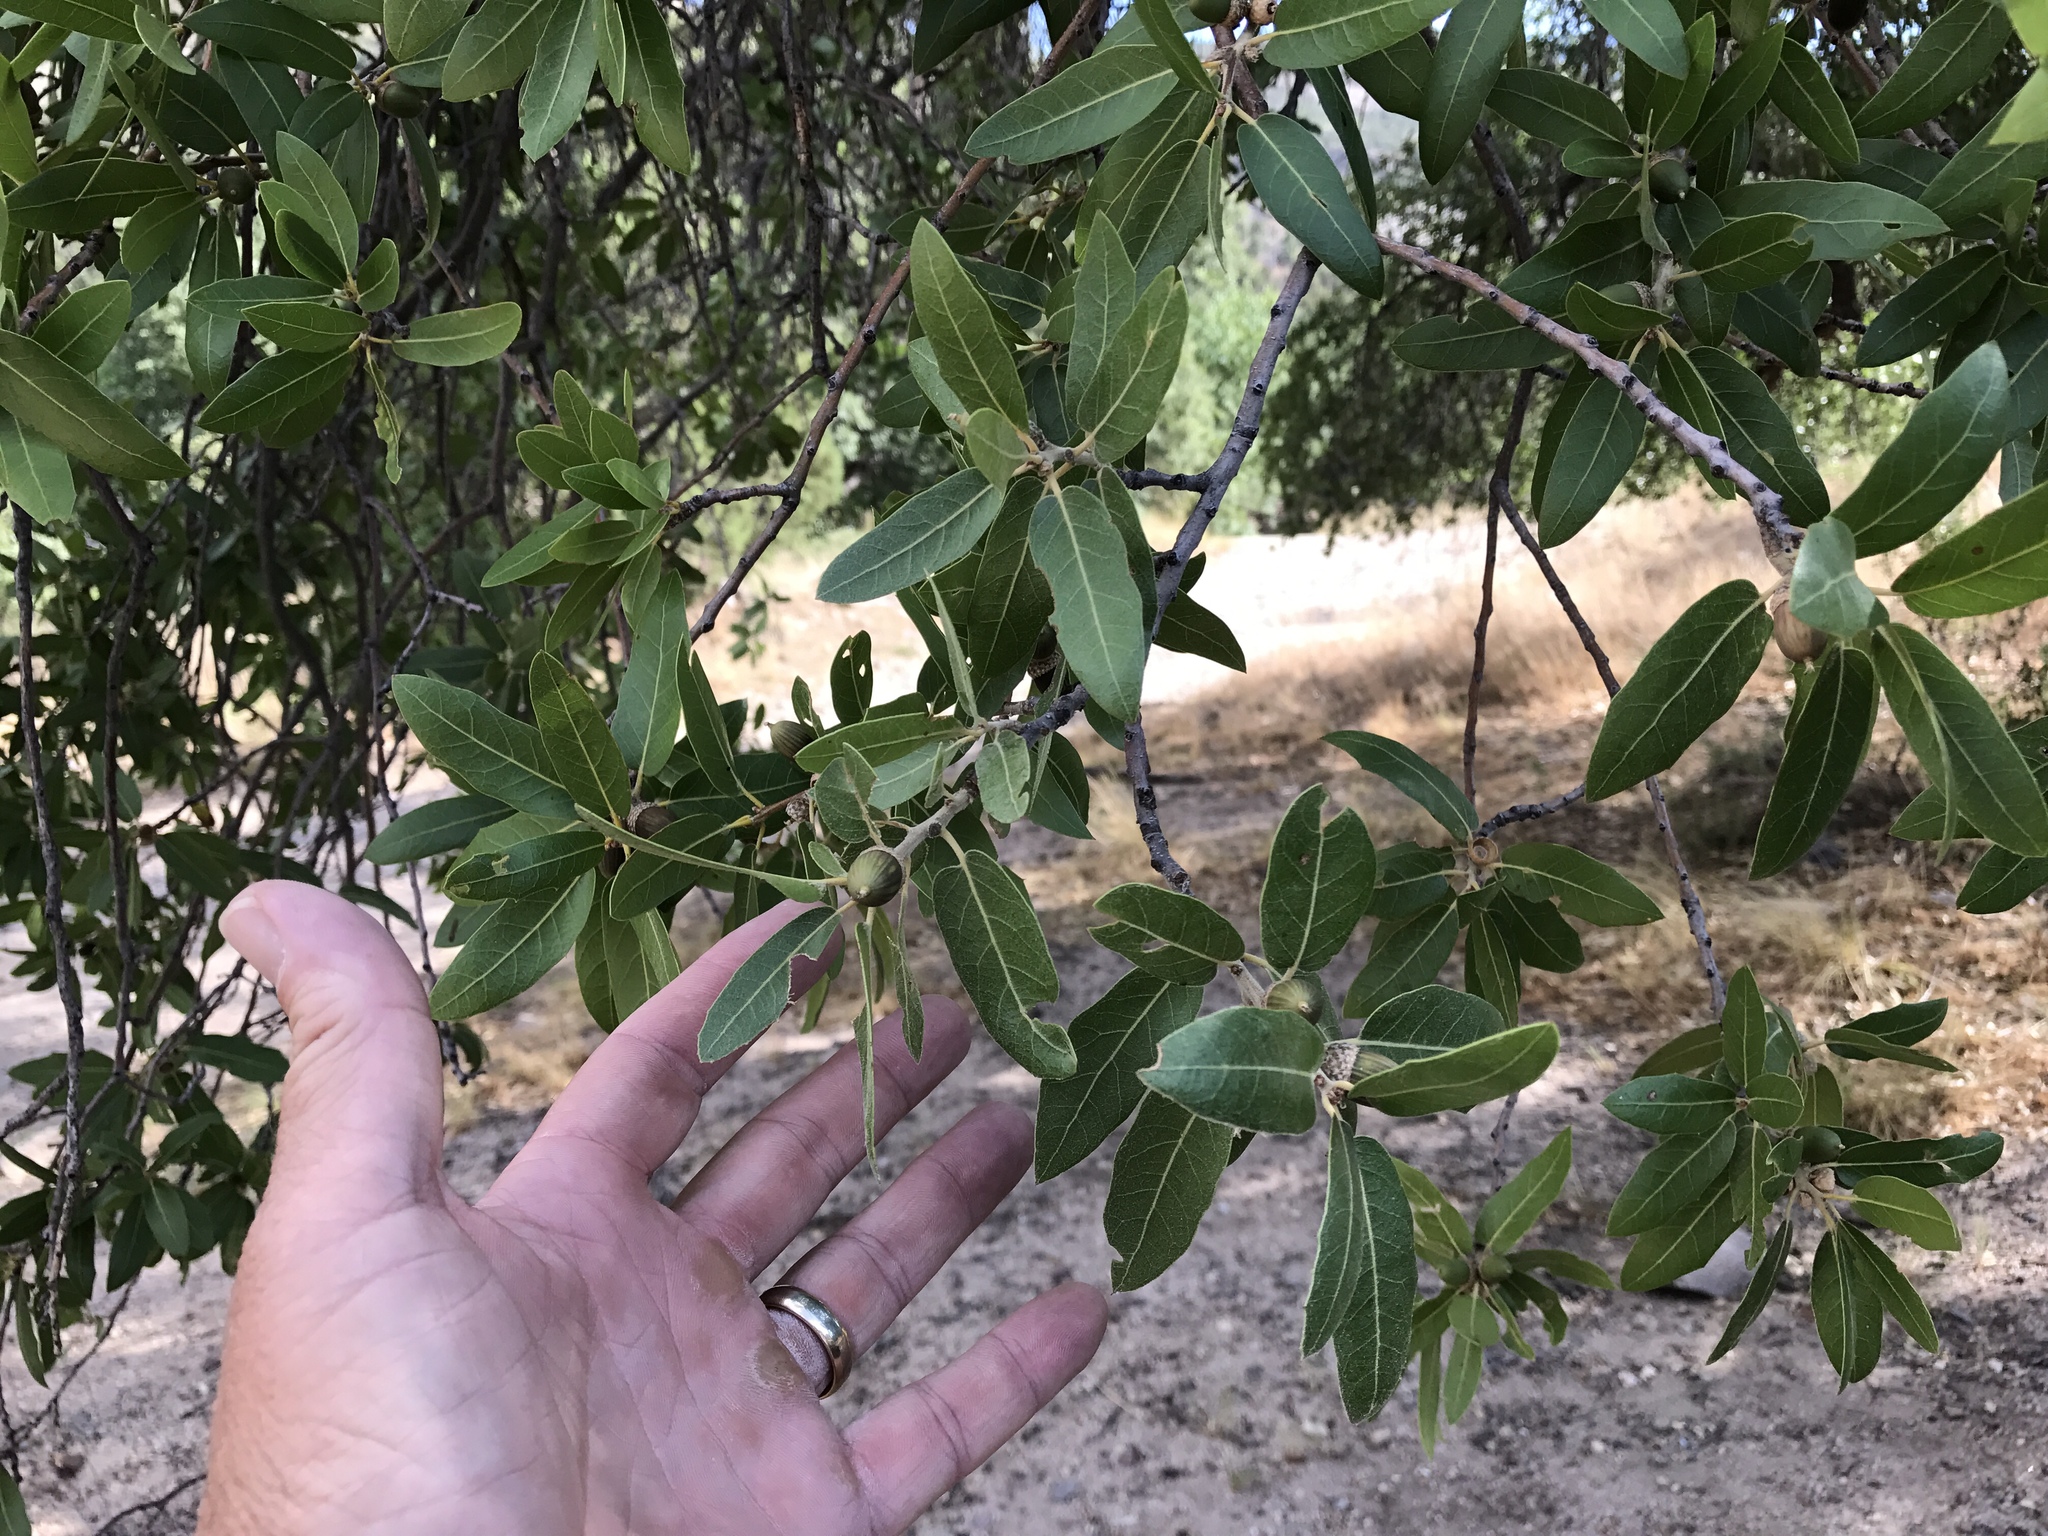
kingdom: Plantae
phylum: Tracheophyta
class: Magnoliopsida
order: Fagales
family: Fagaceae
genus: Quercus
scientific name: Quercus emoryi
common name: Emory oak
